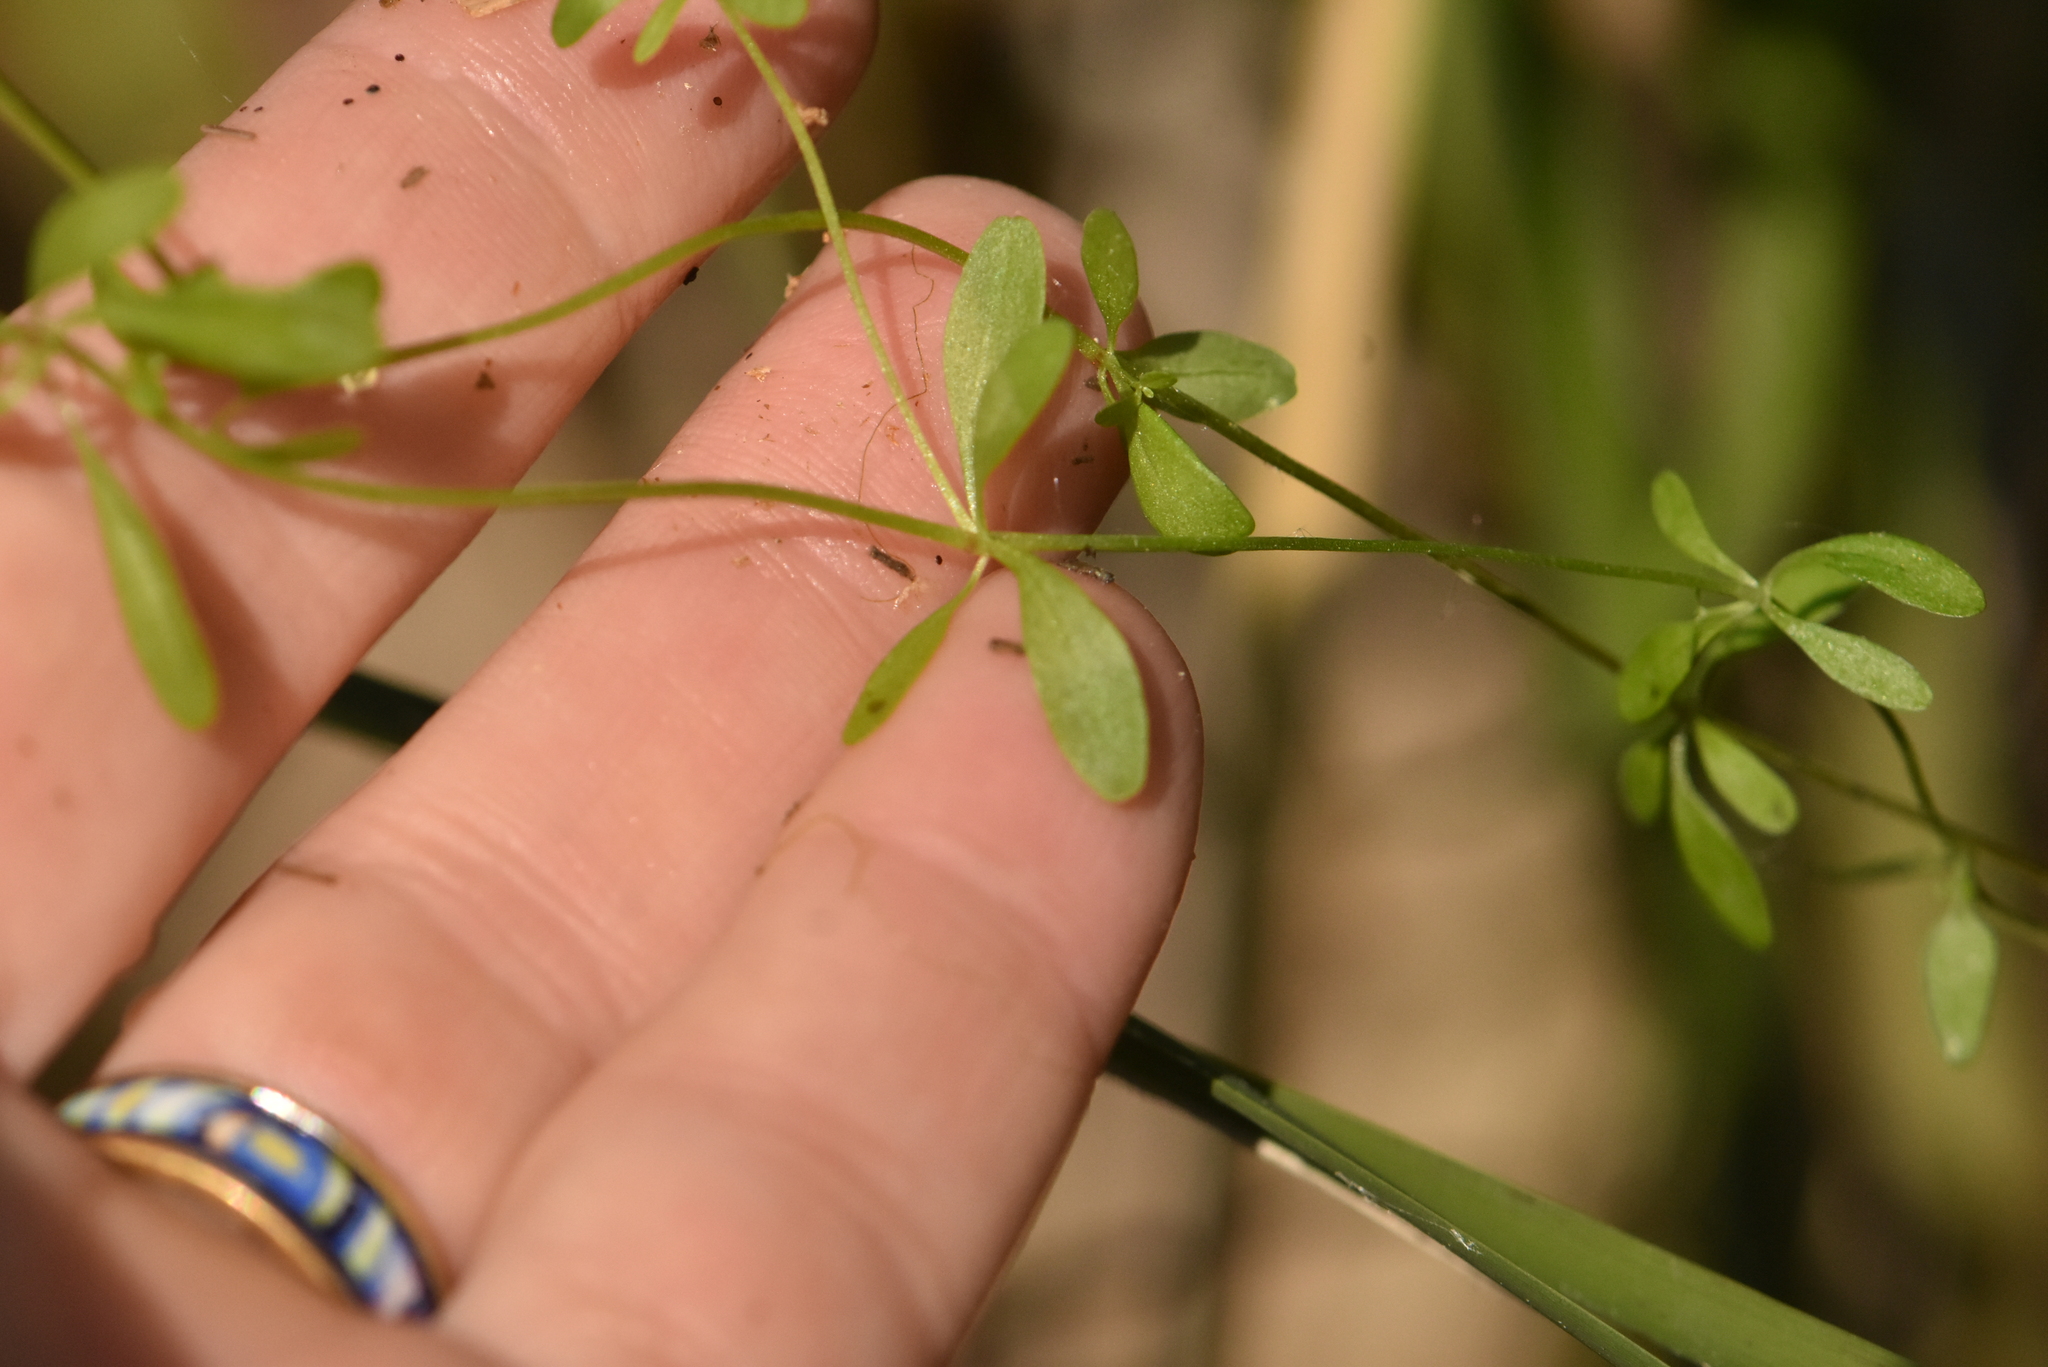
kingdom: Plantae
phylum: Tracheophyta
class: Magnoliopsida
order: Gentianales
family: Rubiaceae
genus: Galium
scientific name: Galium palustre
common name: Common marsh-bedstraw
